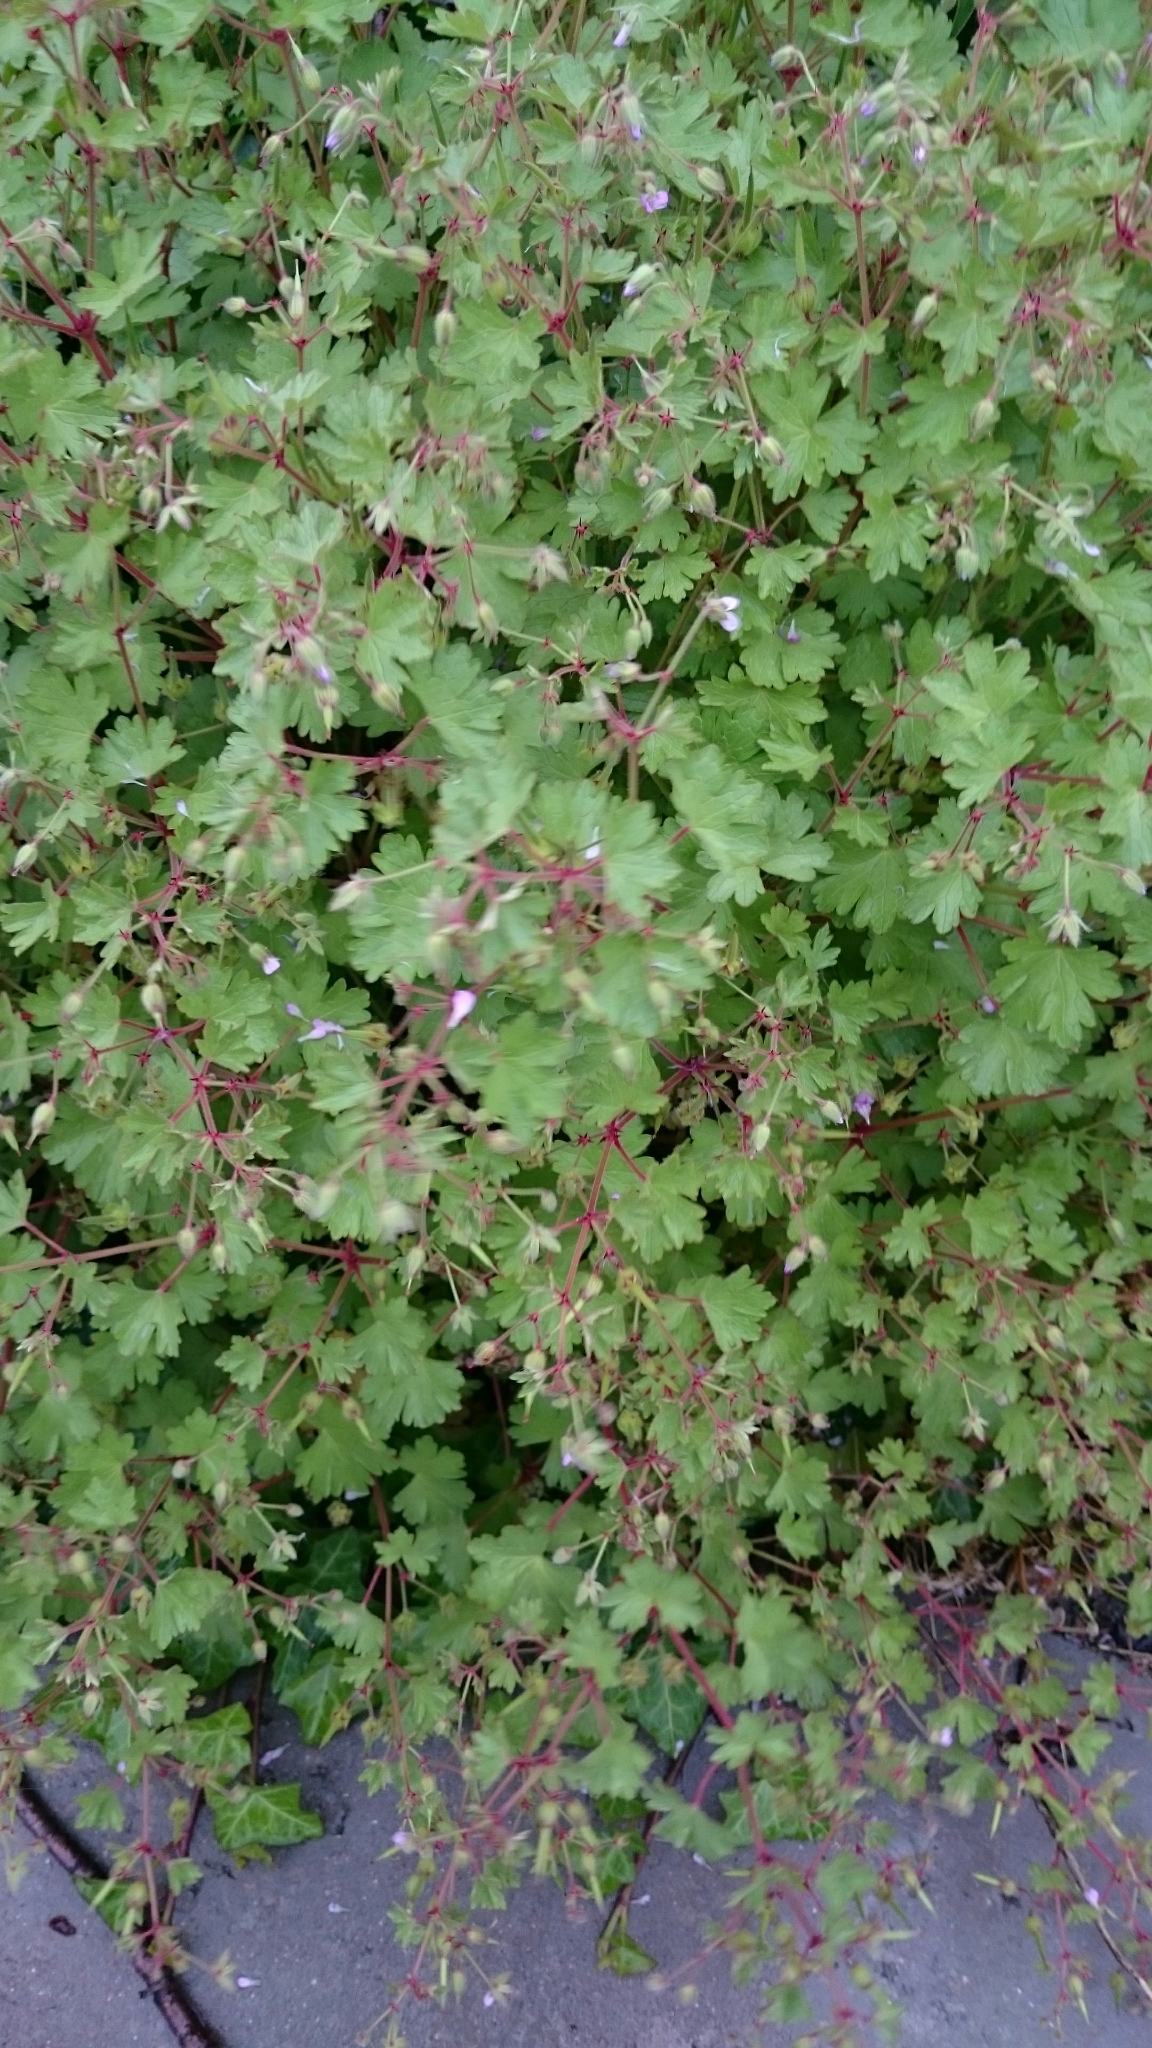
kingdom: Plantae
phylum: Tracheophyta
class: Magnoliopsida
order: Geraniales
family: Geraniaceae
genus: Geranium
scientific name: Geranium rotundifolium
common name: Round-leaved crane's-bill
